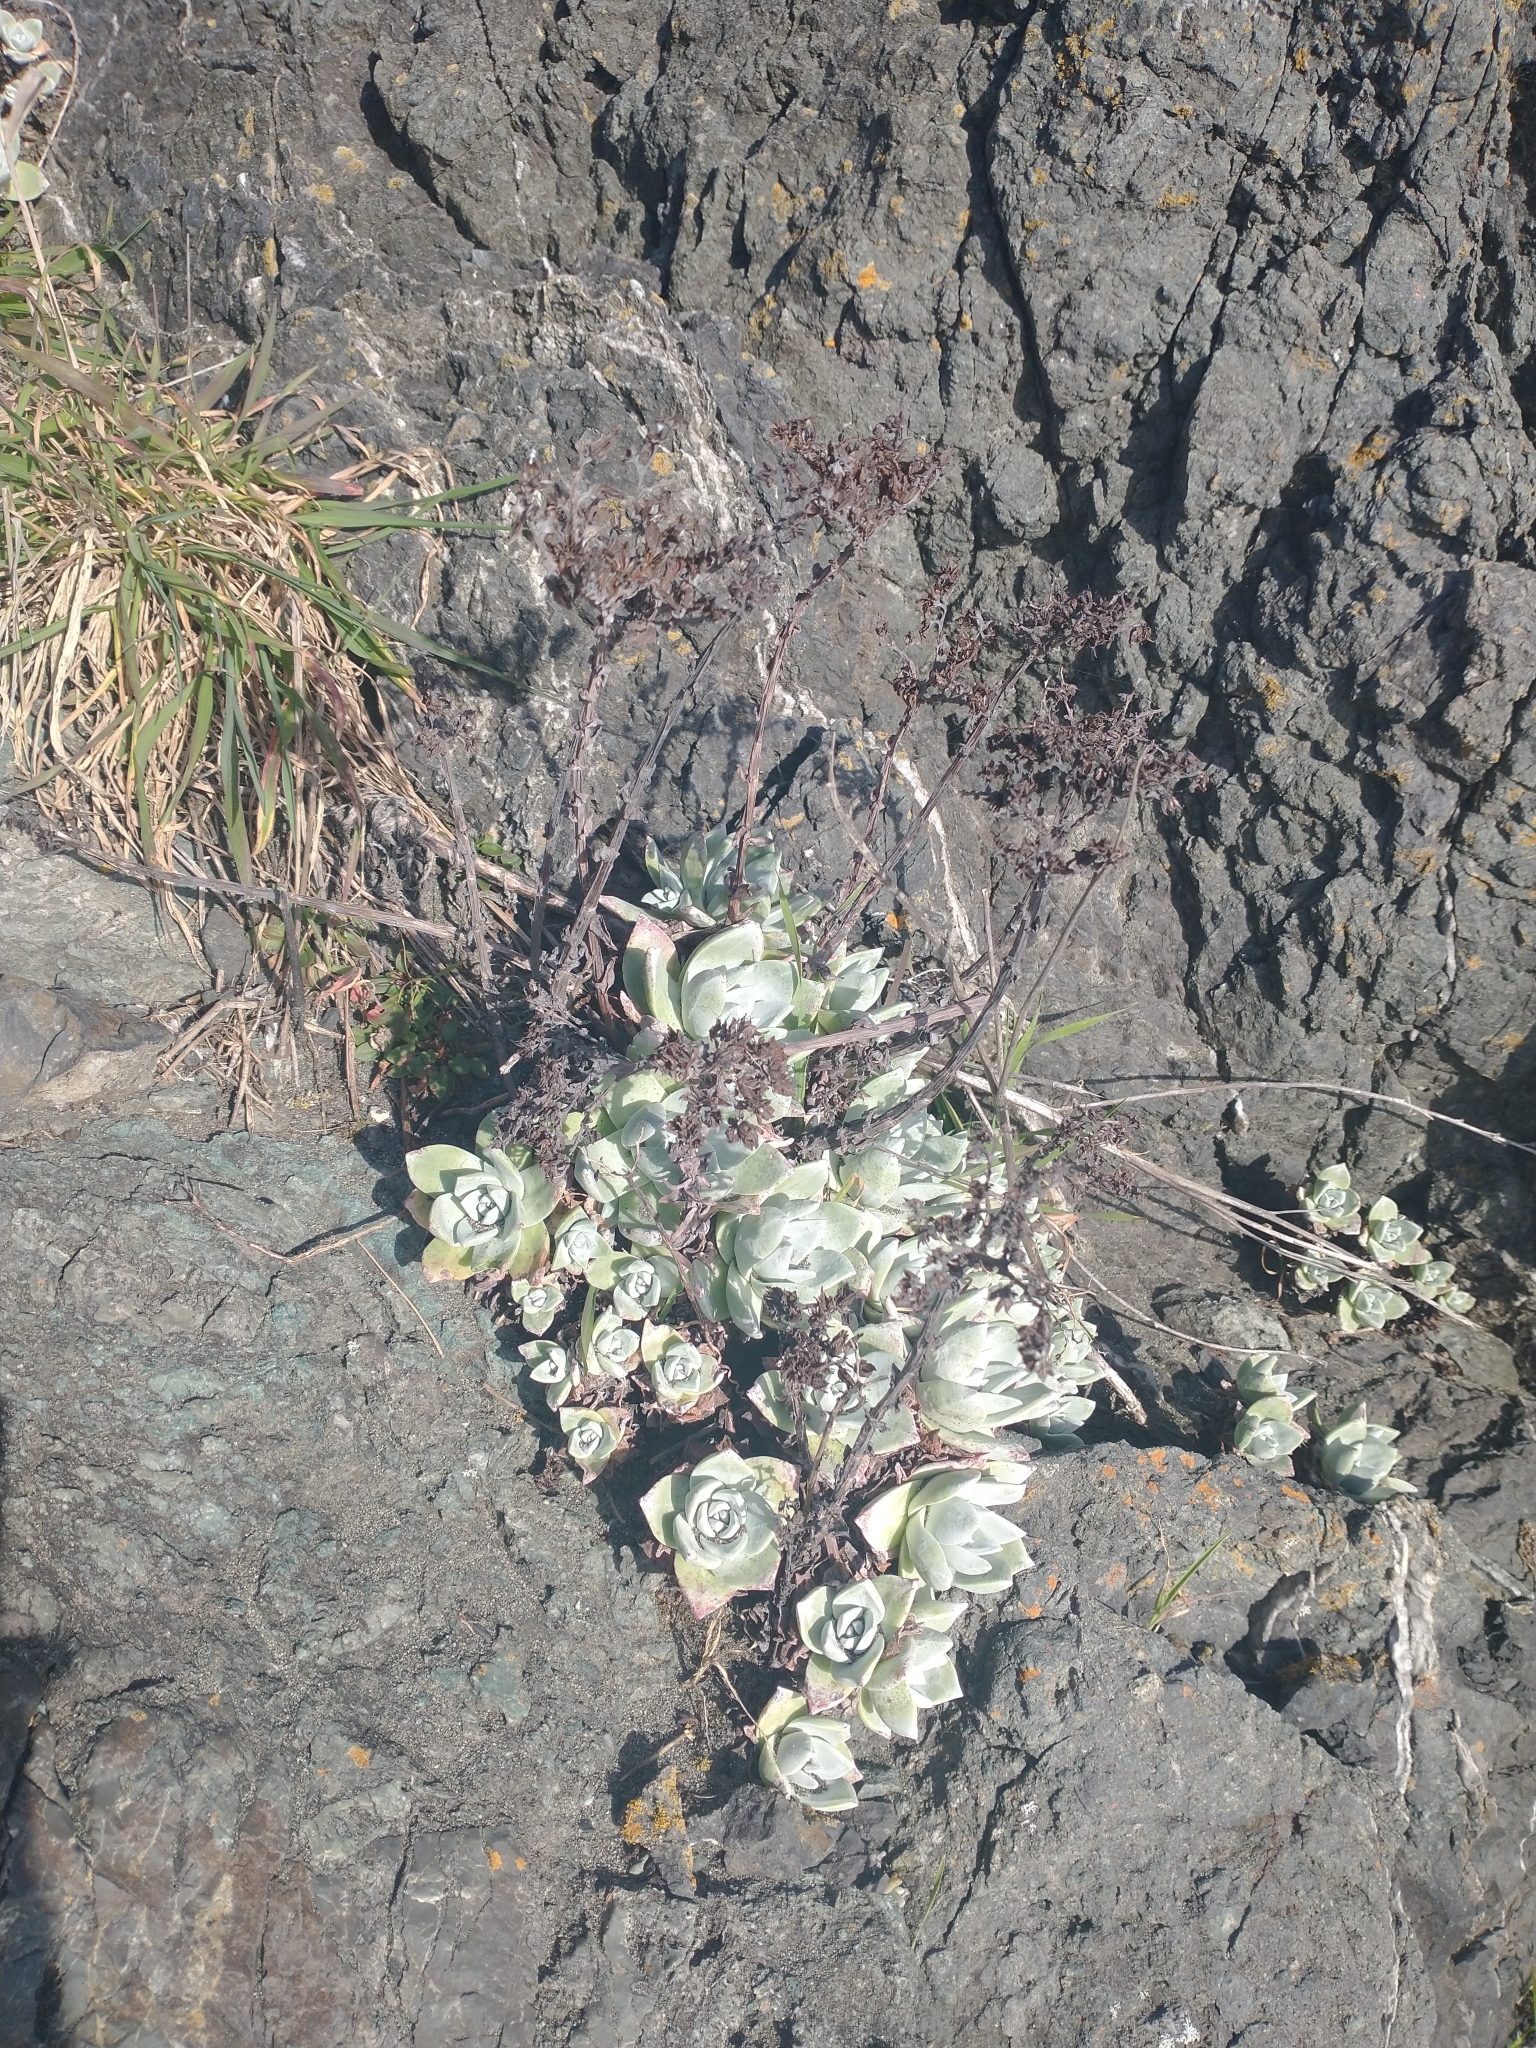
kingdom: Plantae
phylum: Tracheophyta
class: Magnoliopsida
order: Saxifragales
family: Crassulaceae
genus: Dudleya
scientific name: Dudleya farinosa
